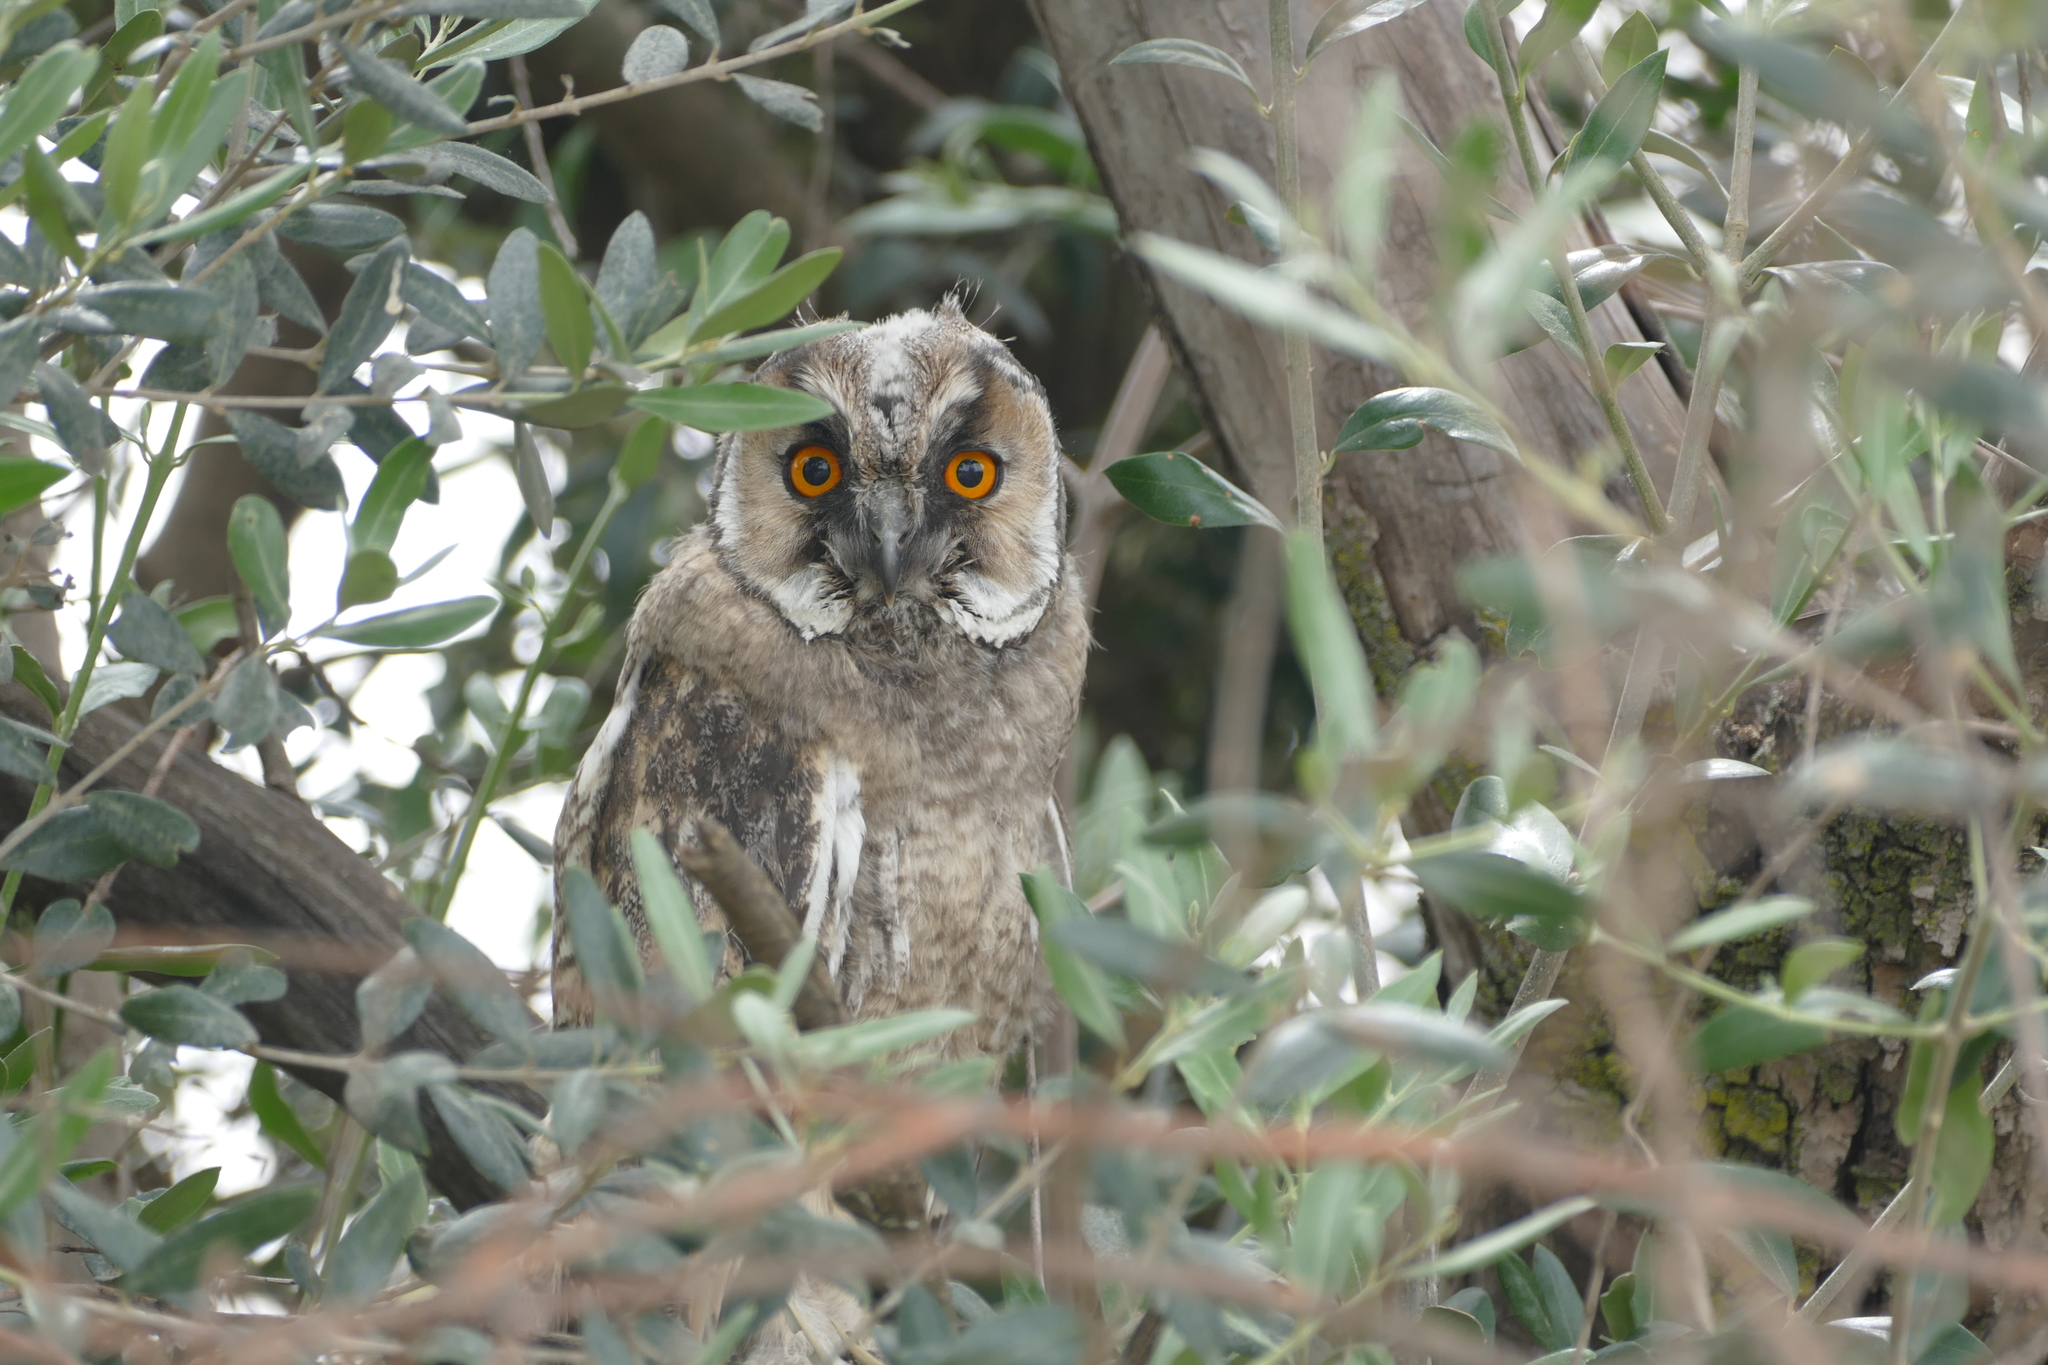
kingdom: Animalia
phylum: Chordata
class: Aves
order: Strigiformes
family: Strigidae
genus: Asio
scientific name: Asio otus
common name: Long-eared owl
